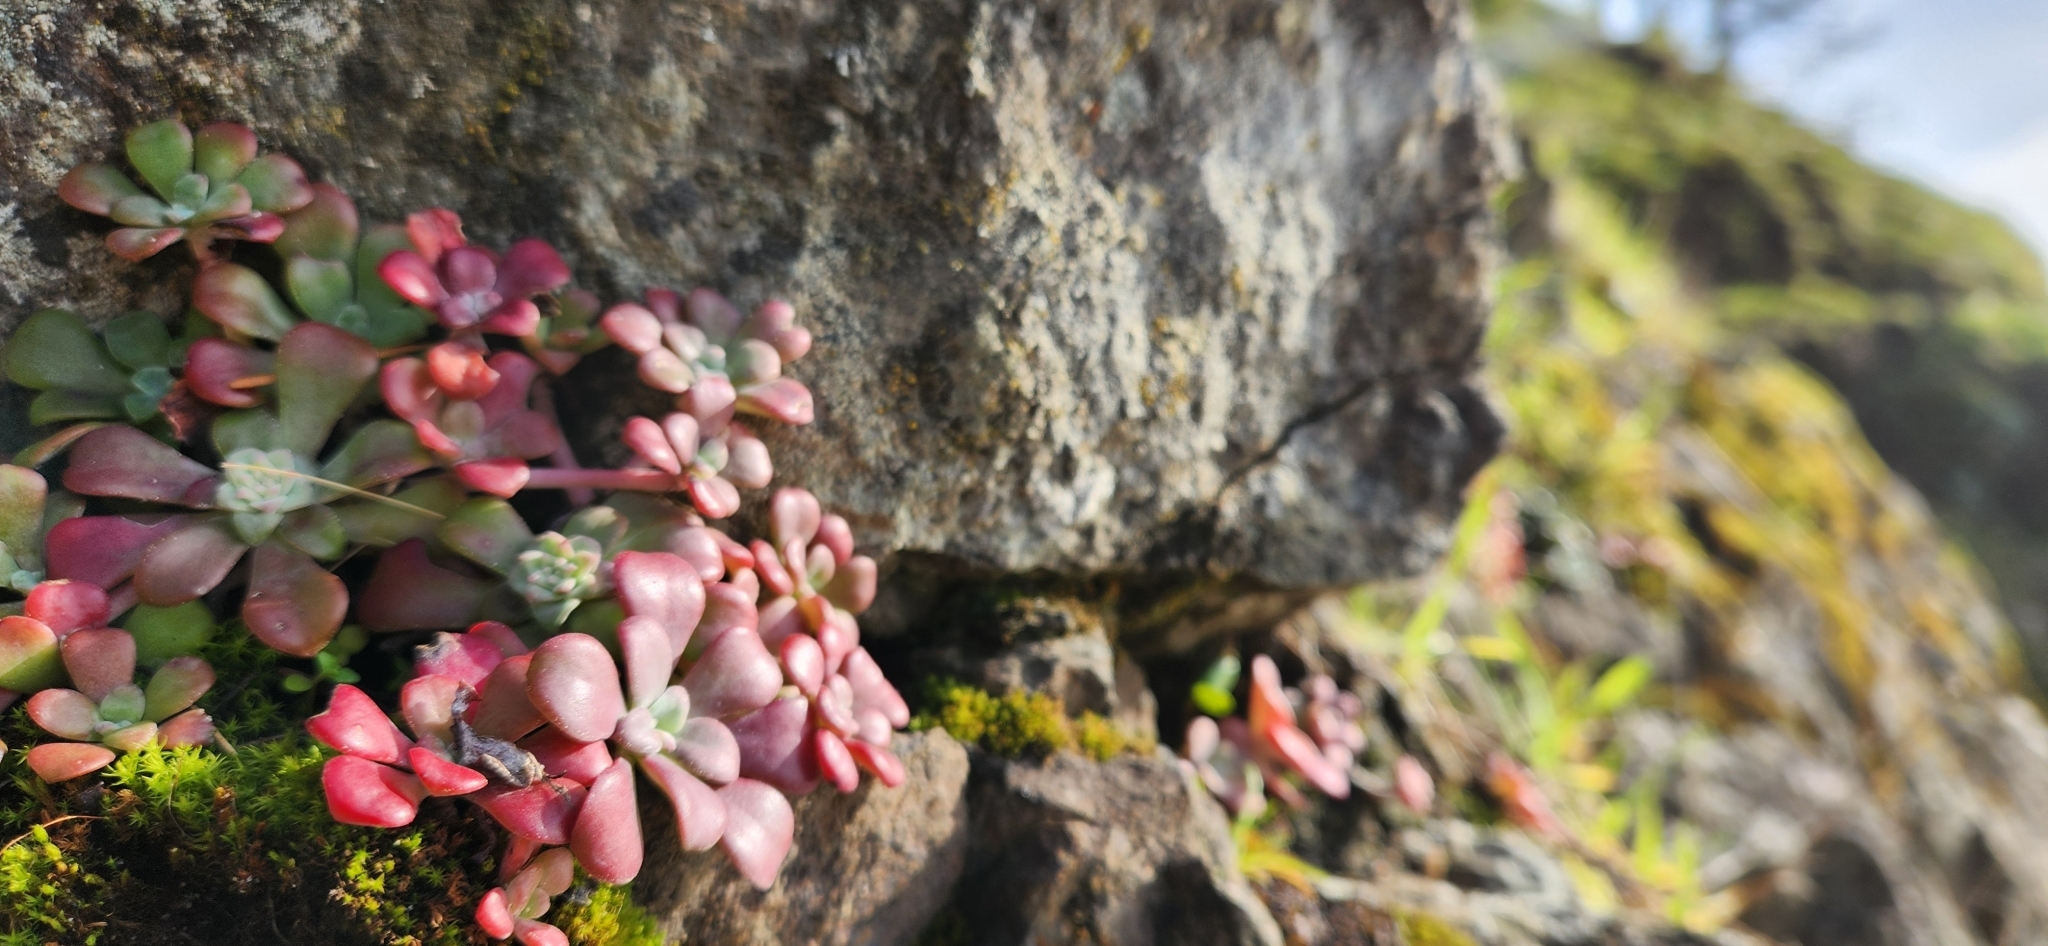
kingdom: Plantae
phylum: Tracheophyta
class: Magnoliopsida
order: Saxifragales
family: Crassulaceae
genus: Sedum
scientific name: Sedum spathulifolium
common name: Colorado stonecrop
